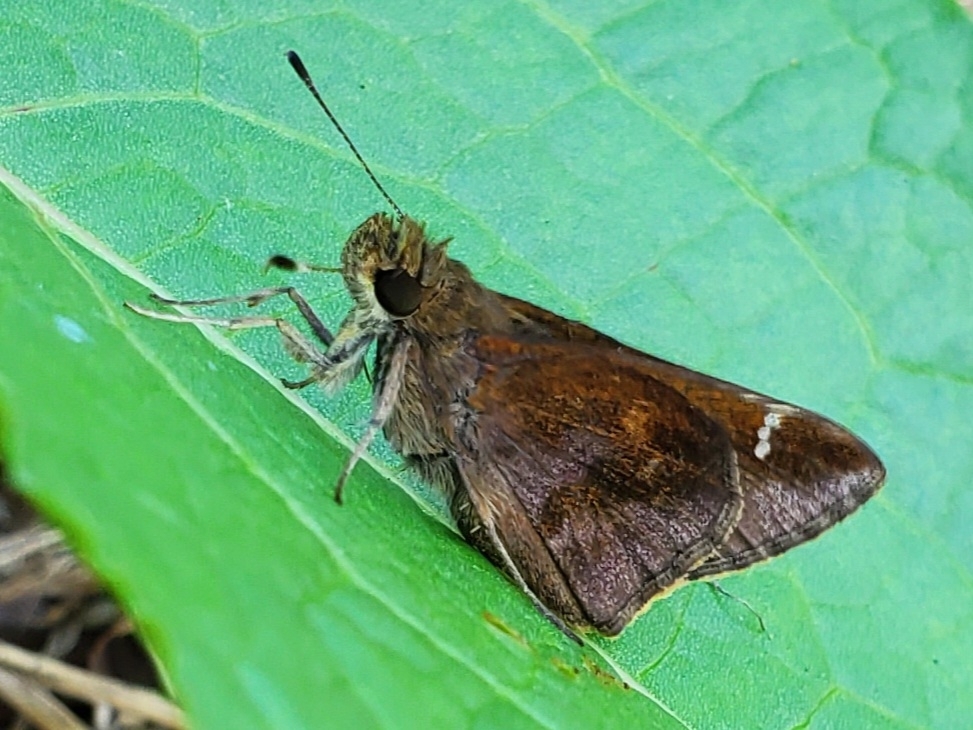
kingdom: Animalia
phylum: Arthropoda
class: Insecta
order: Lepidoptera
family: Hesperiidae
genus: Lerema
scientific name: Lerema accius
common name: Clouded skipper
